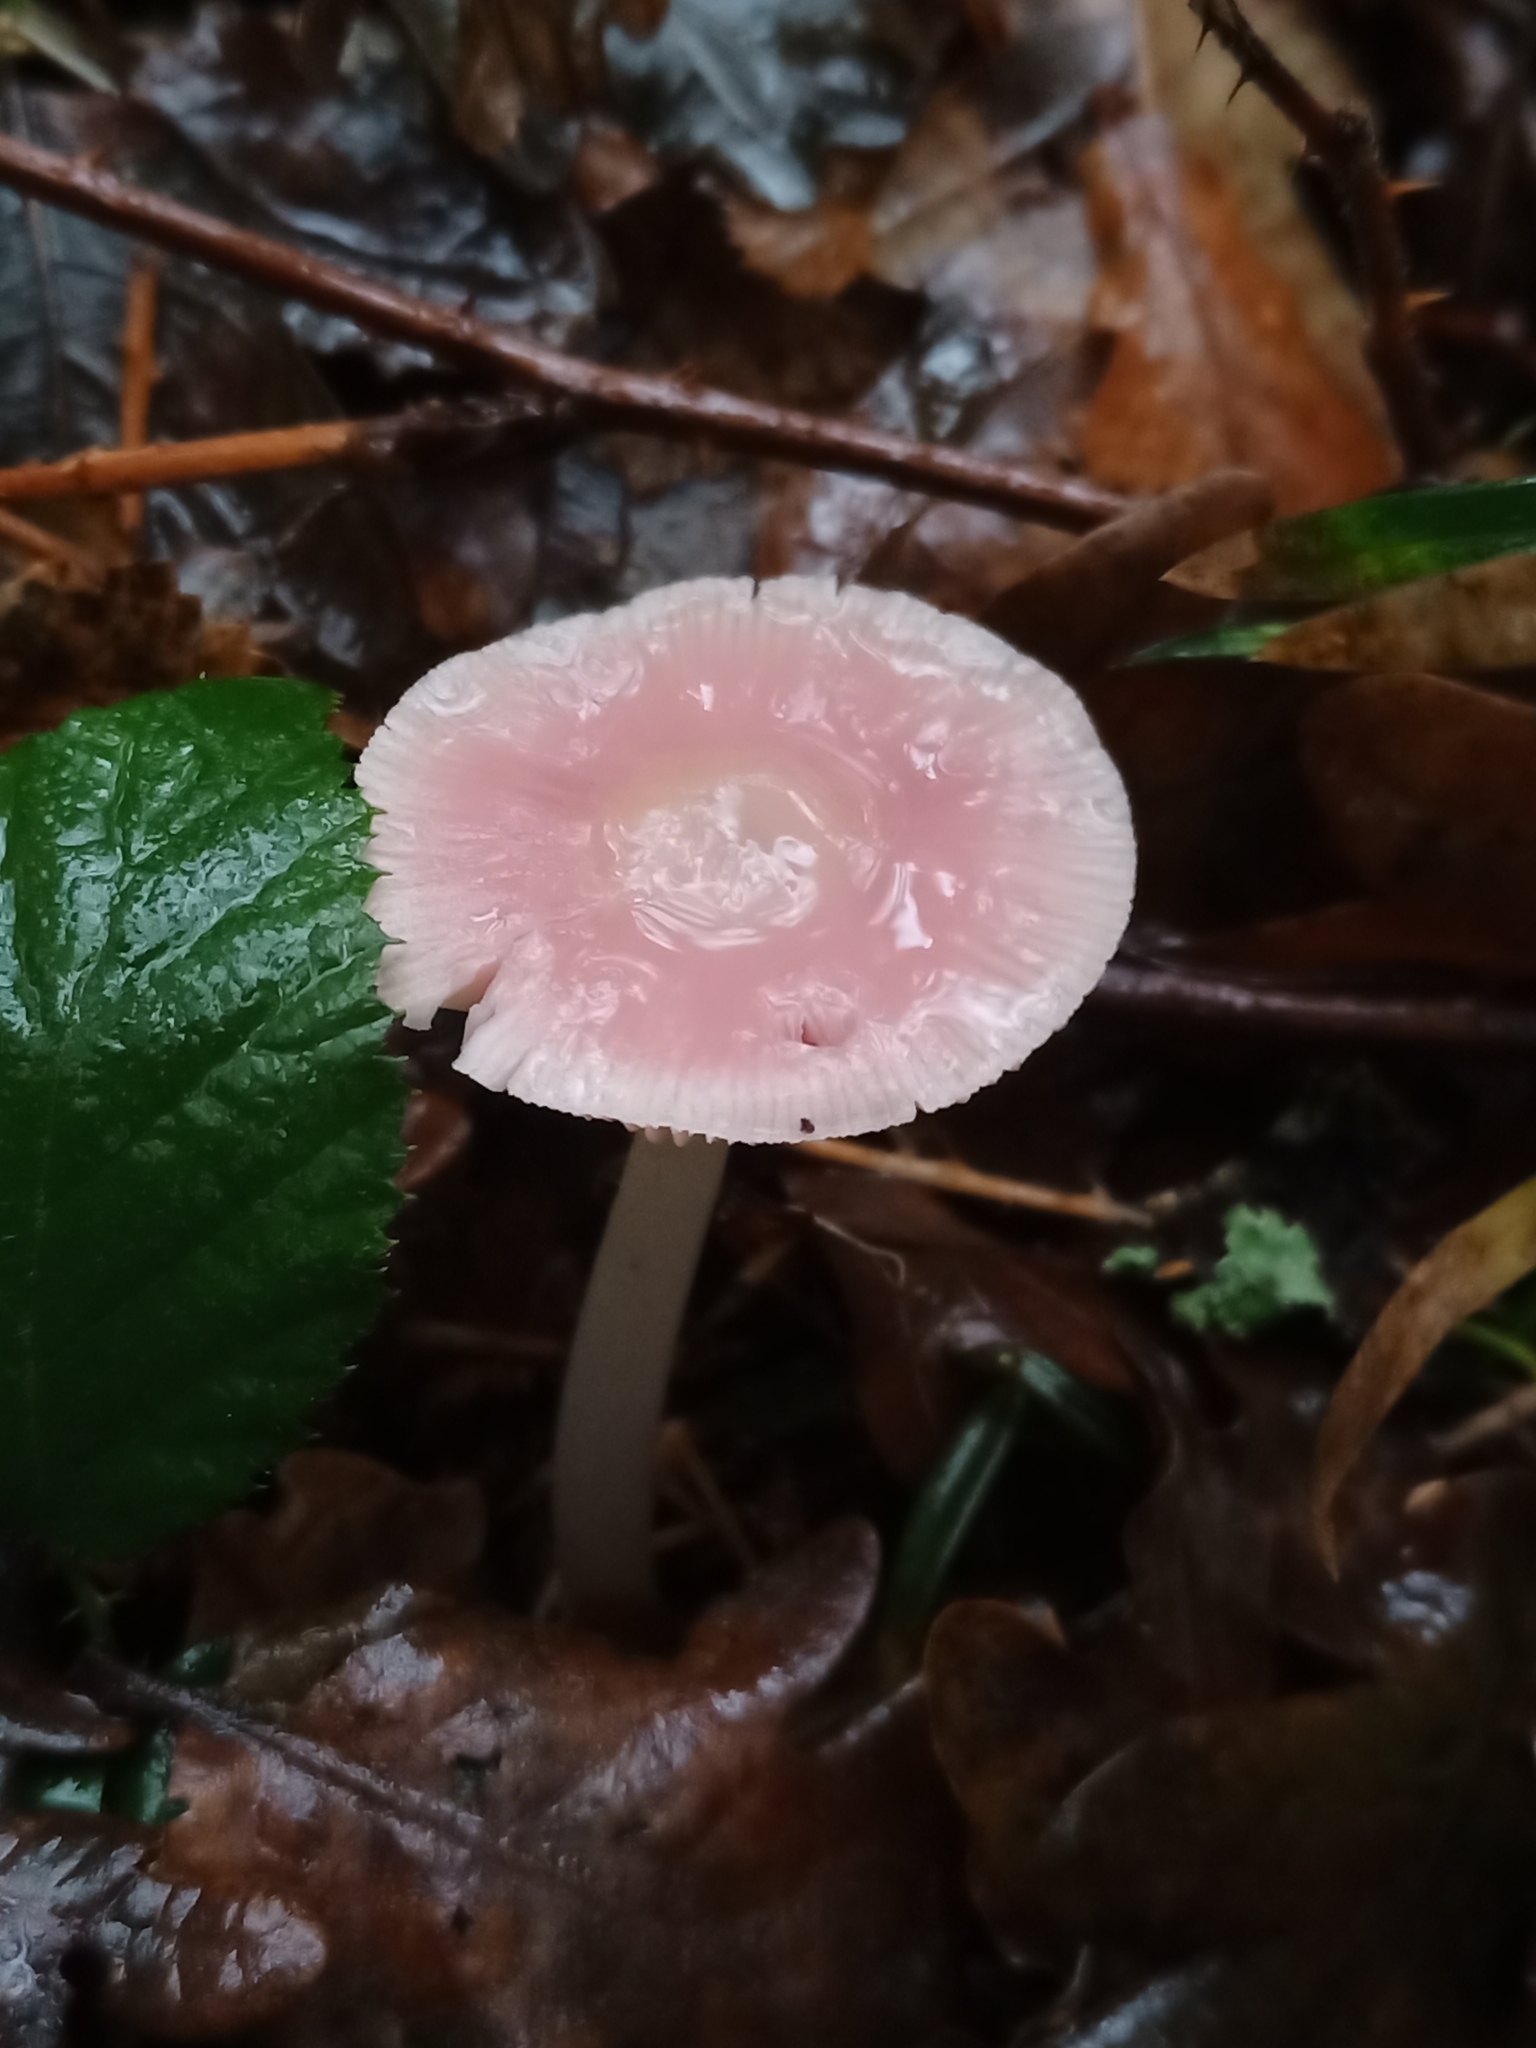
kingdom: Fungi
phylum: Basidiomycota
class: Agaricomycetes
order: Agaricales
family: Mycenaceae
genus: Mycena
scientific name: Mycena rosea
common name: Rosy bonnet
